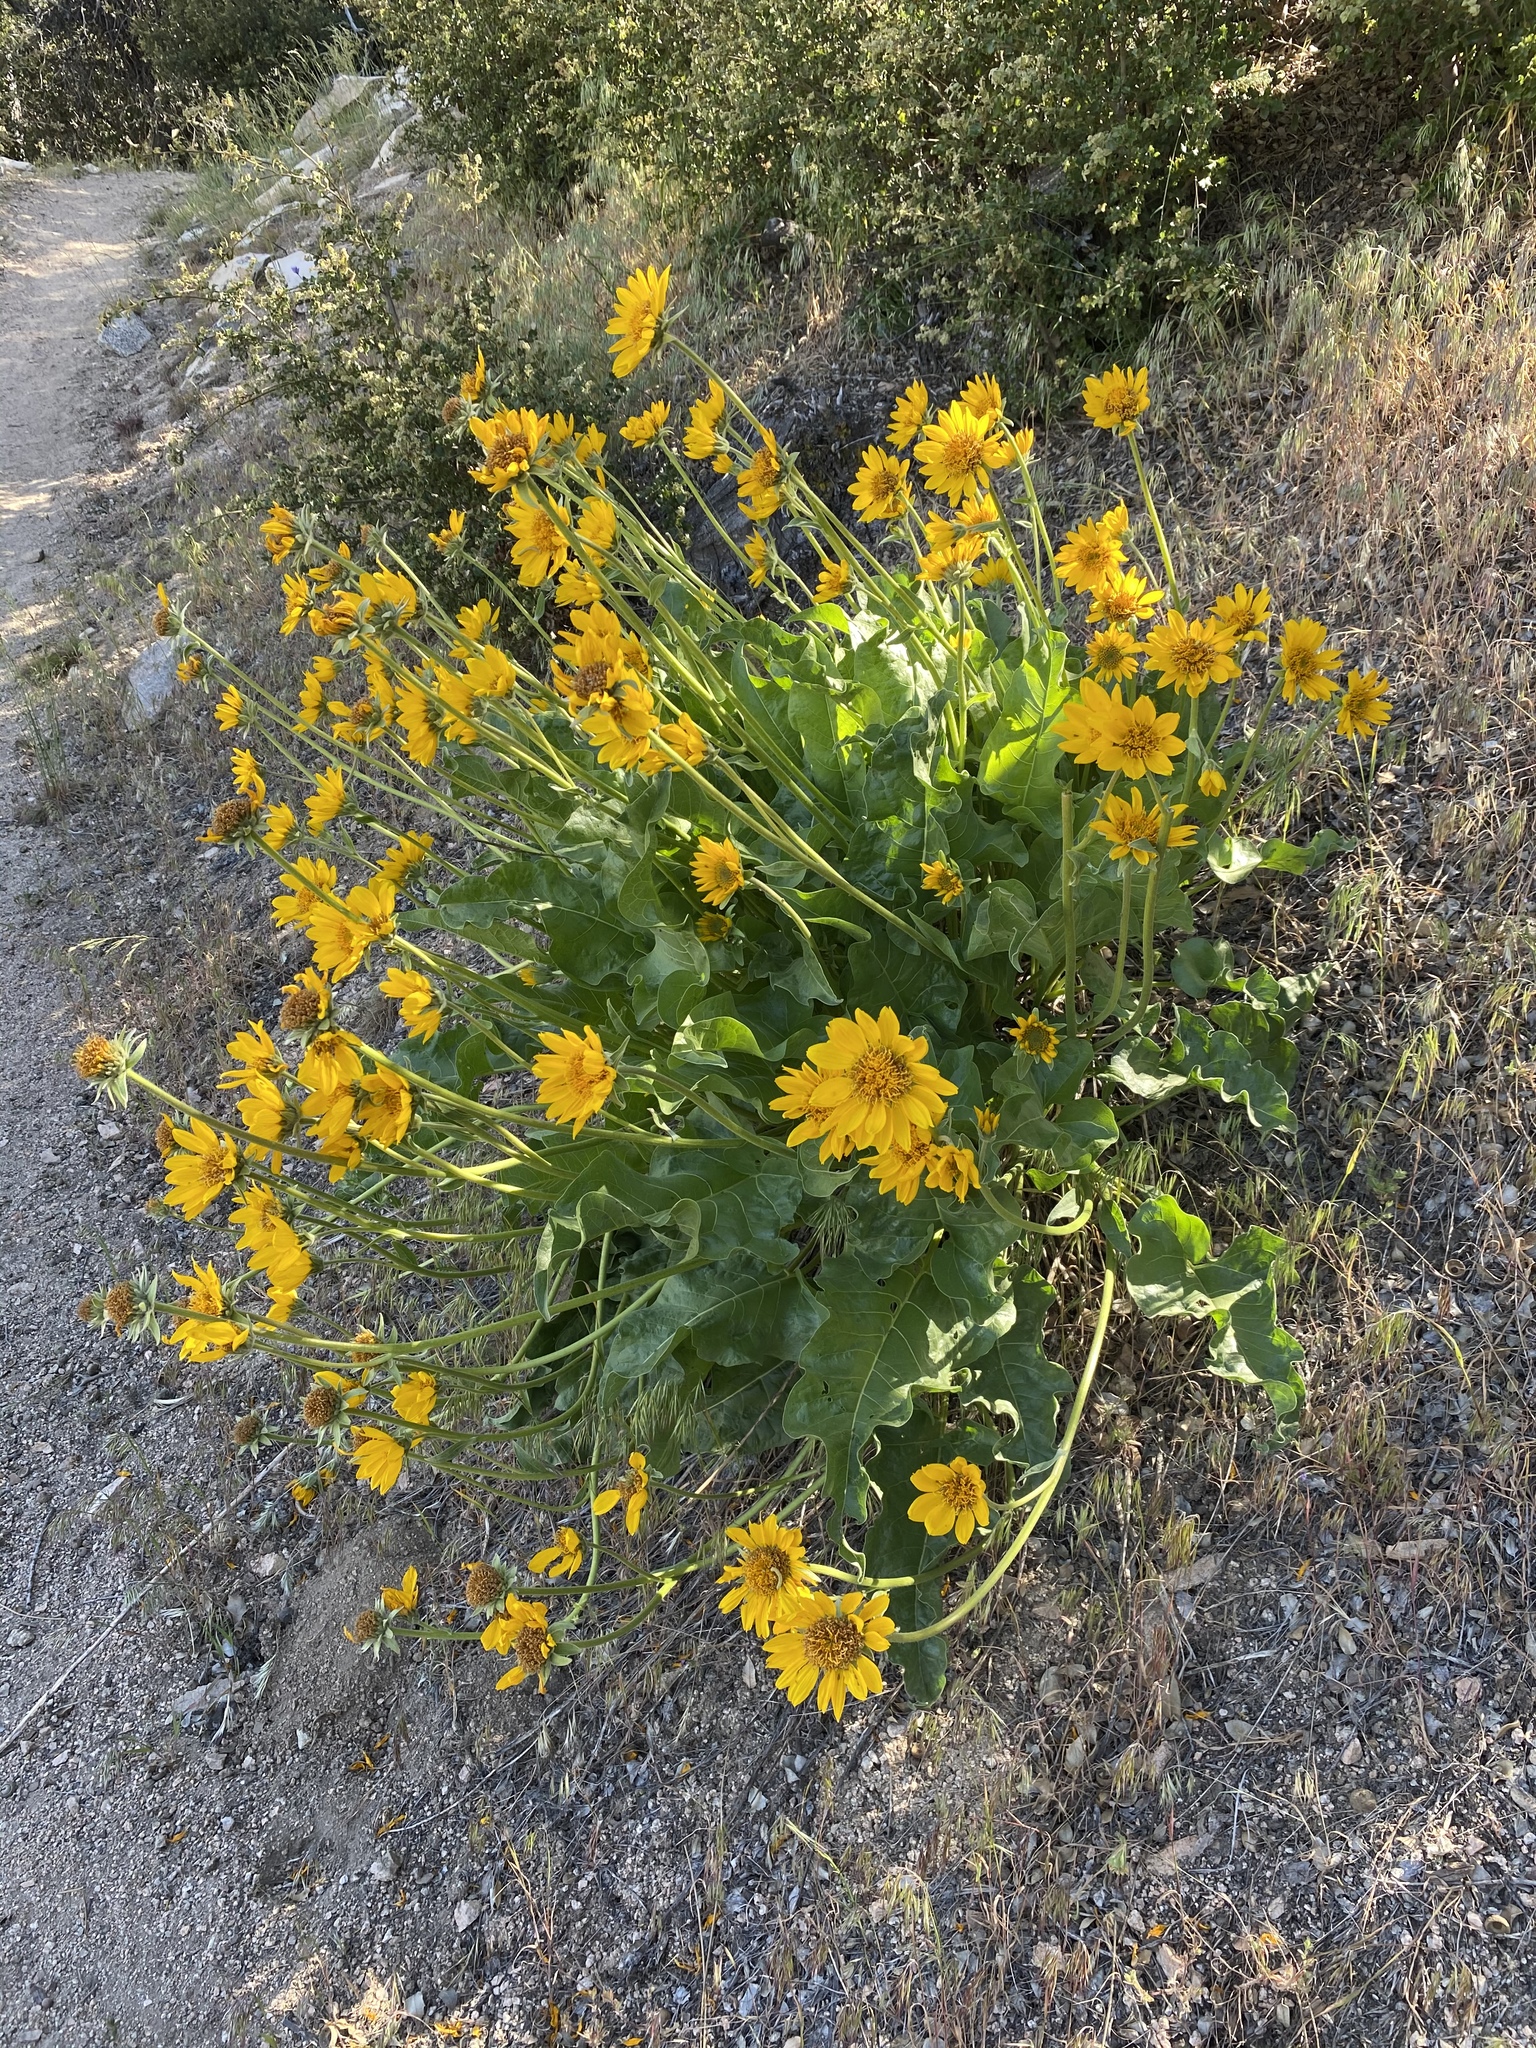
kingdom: Plantae
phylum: Tracheophyta
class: Magnoliopsida
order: Asterales
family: Asteraceae
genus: Balsamorhiza
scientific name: Balsamorhiza deltoidea
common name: Deltoid balsamroot
